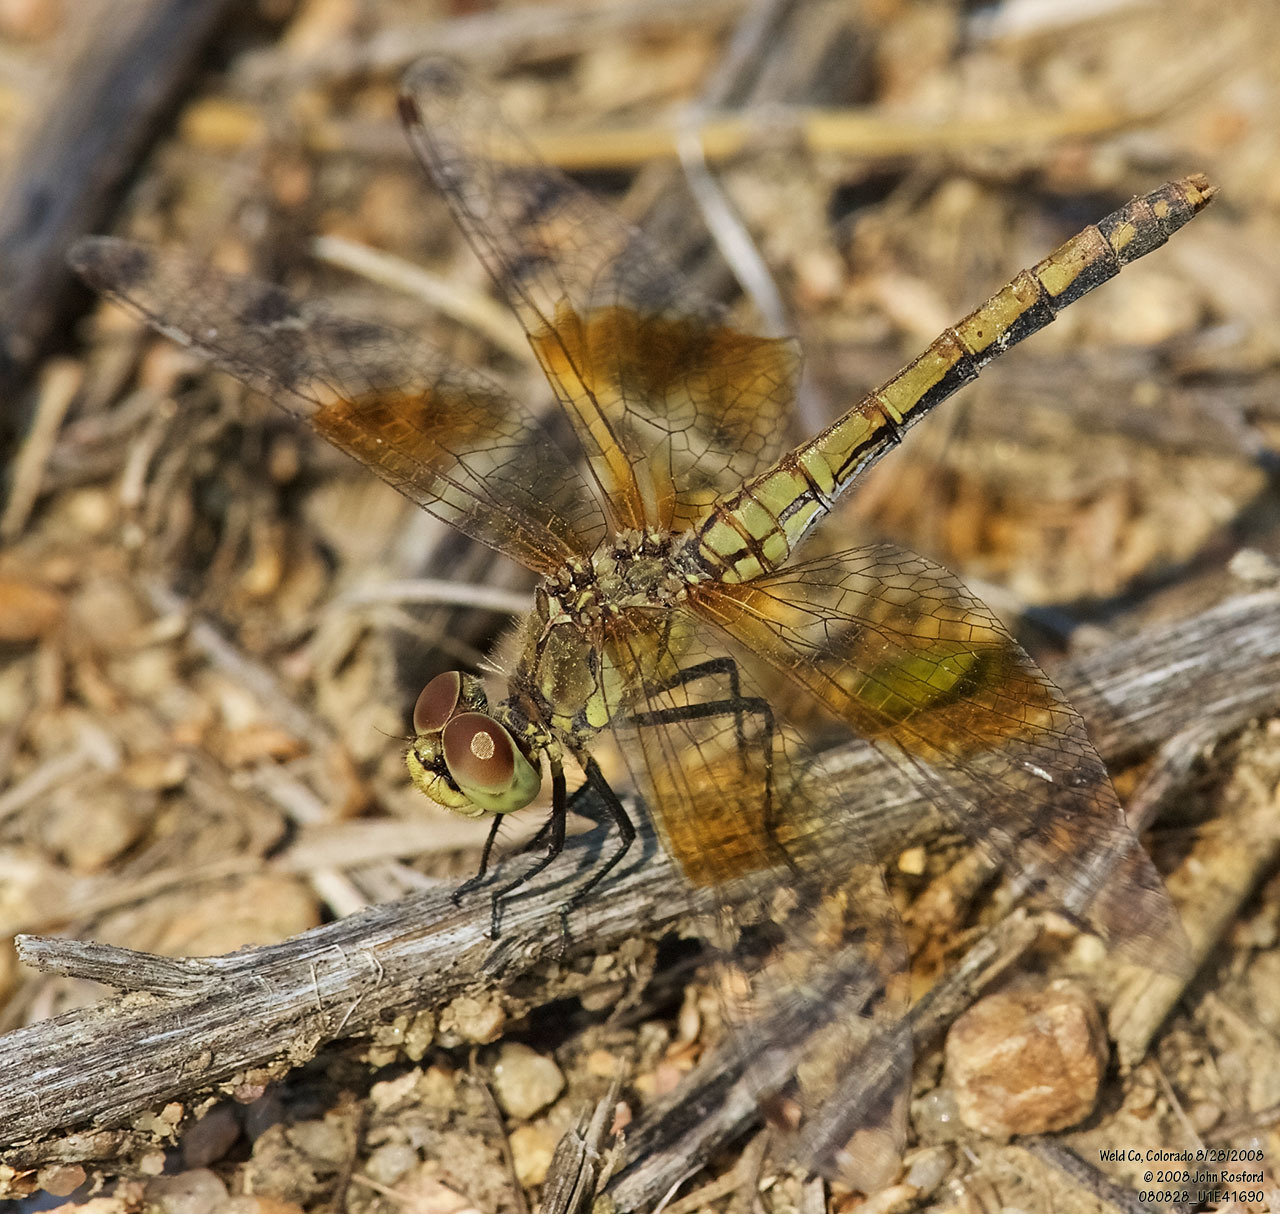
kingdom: Animalia
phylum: Arthropoda
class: Insecta
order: Odonata
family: Libellulidae
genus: Sympetrum
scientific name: Sympetrum semicinctum
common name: Band-winged meadowhawk
